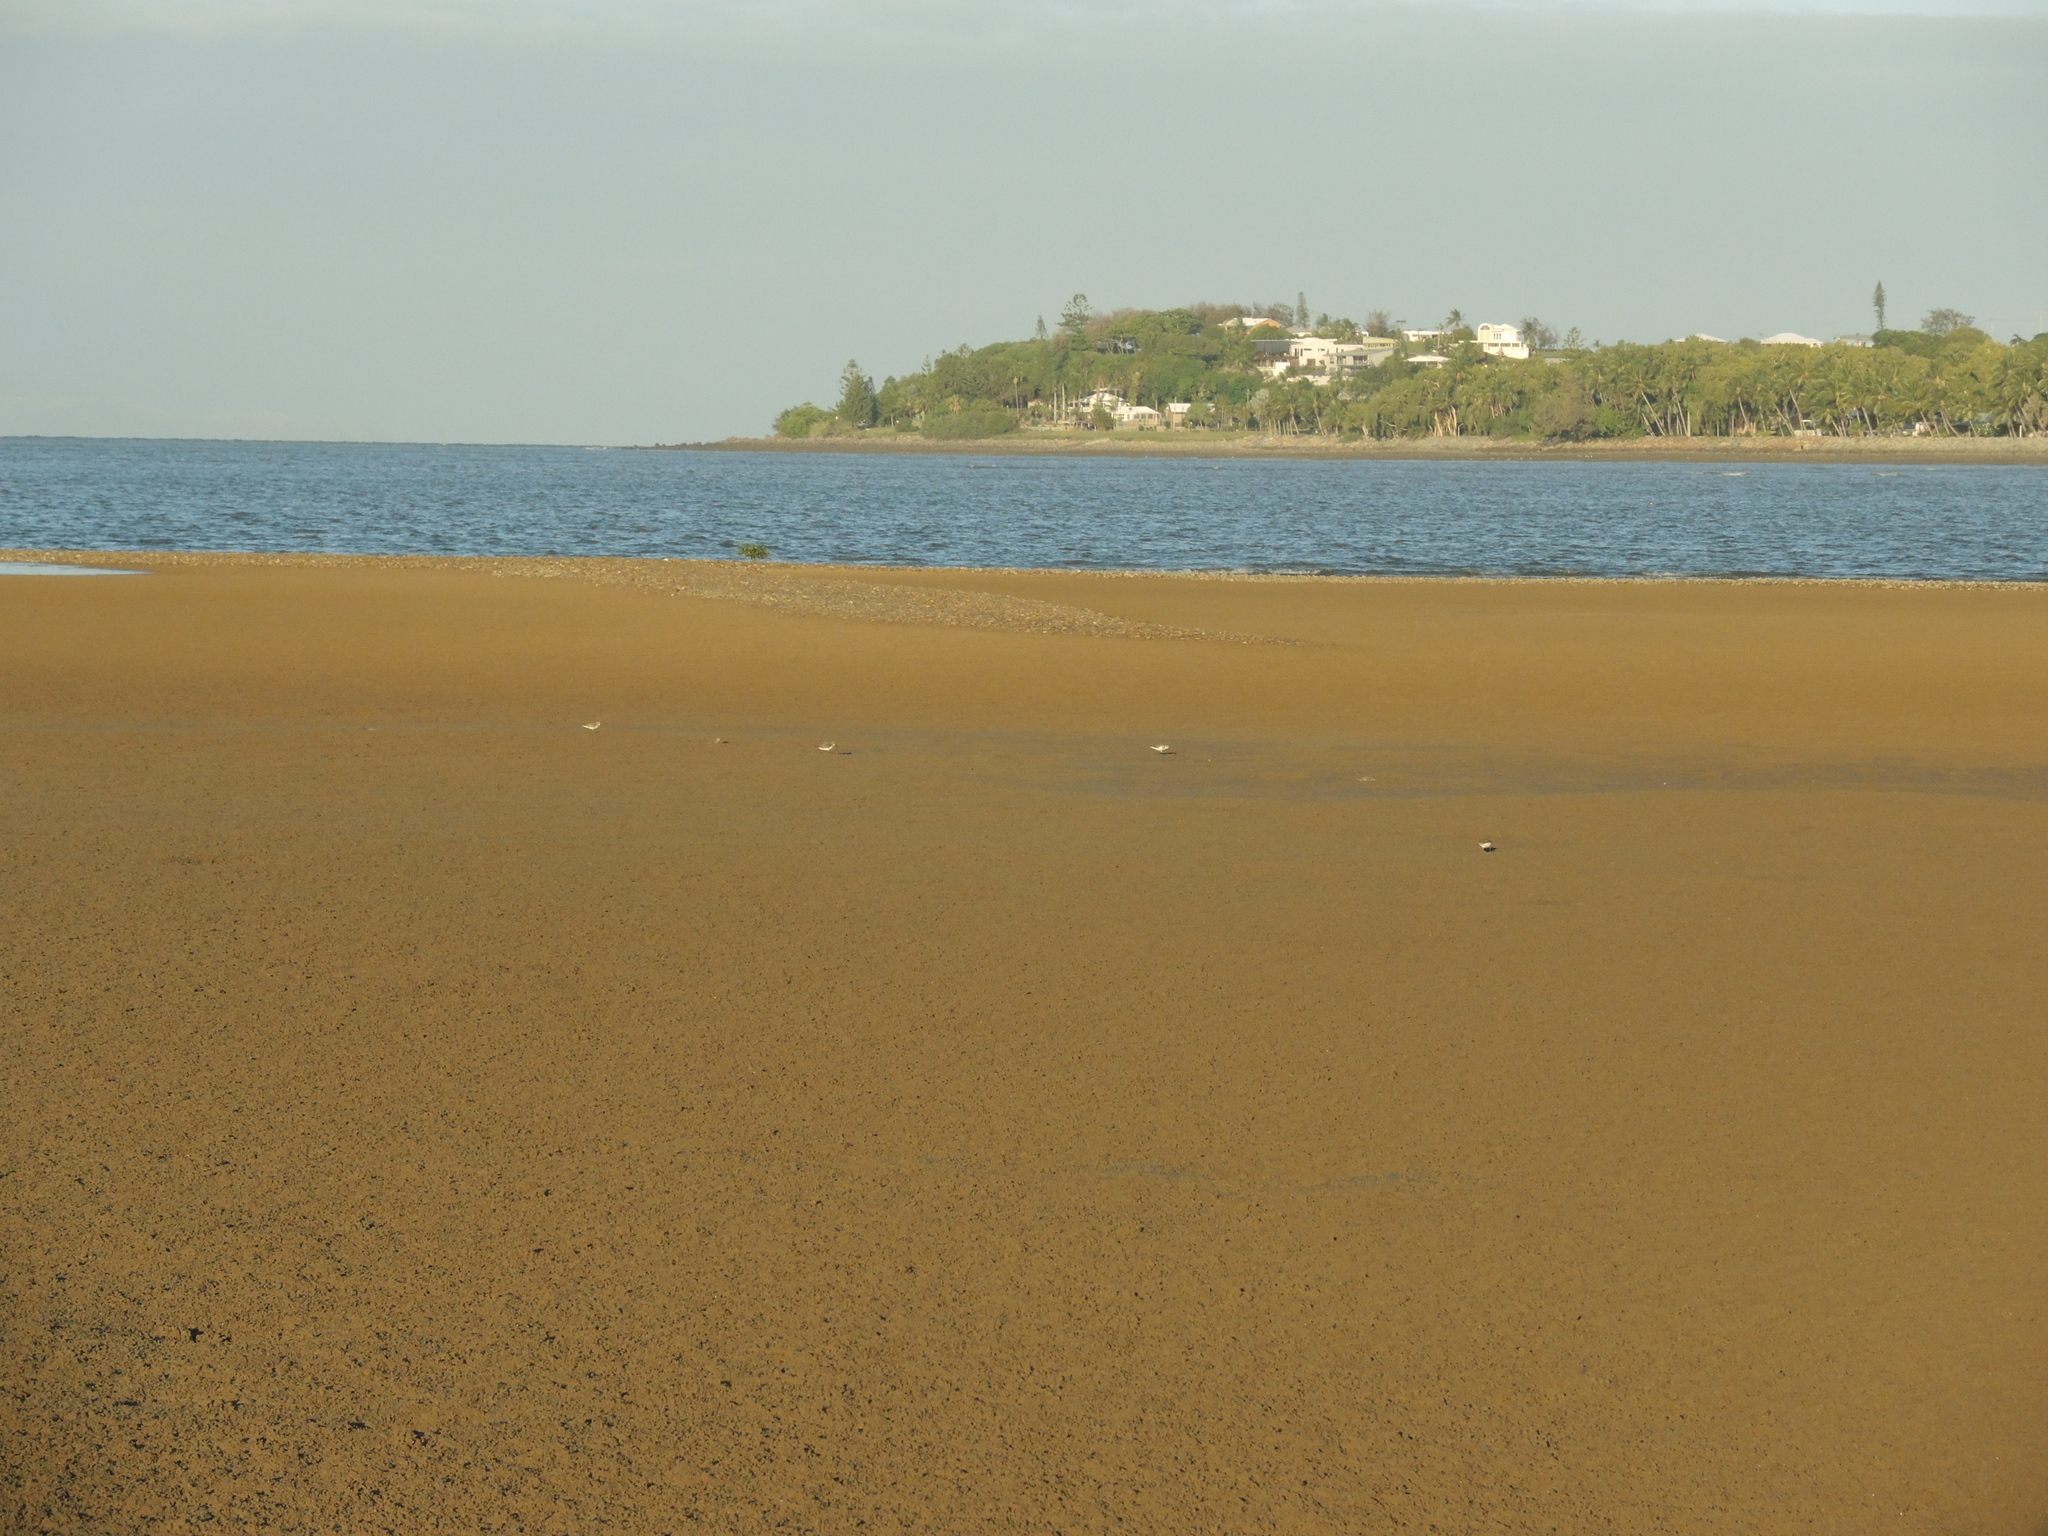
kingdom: Plantae
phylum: Tracheophyta
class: Magnoliopsida
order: Lamiales
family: Acanthaceae
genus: Avicennia
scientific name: Avicennia marina
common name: Gray mangrove
